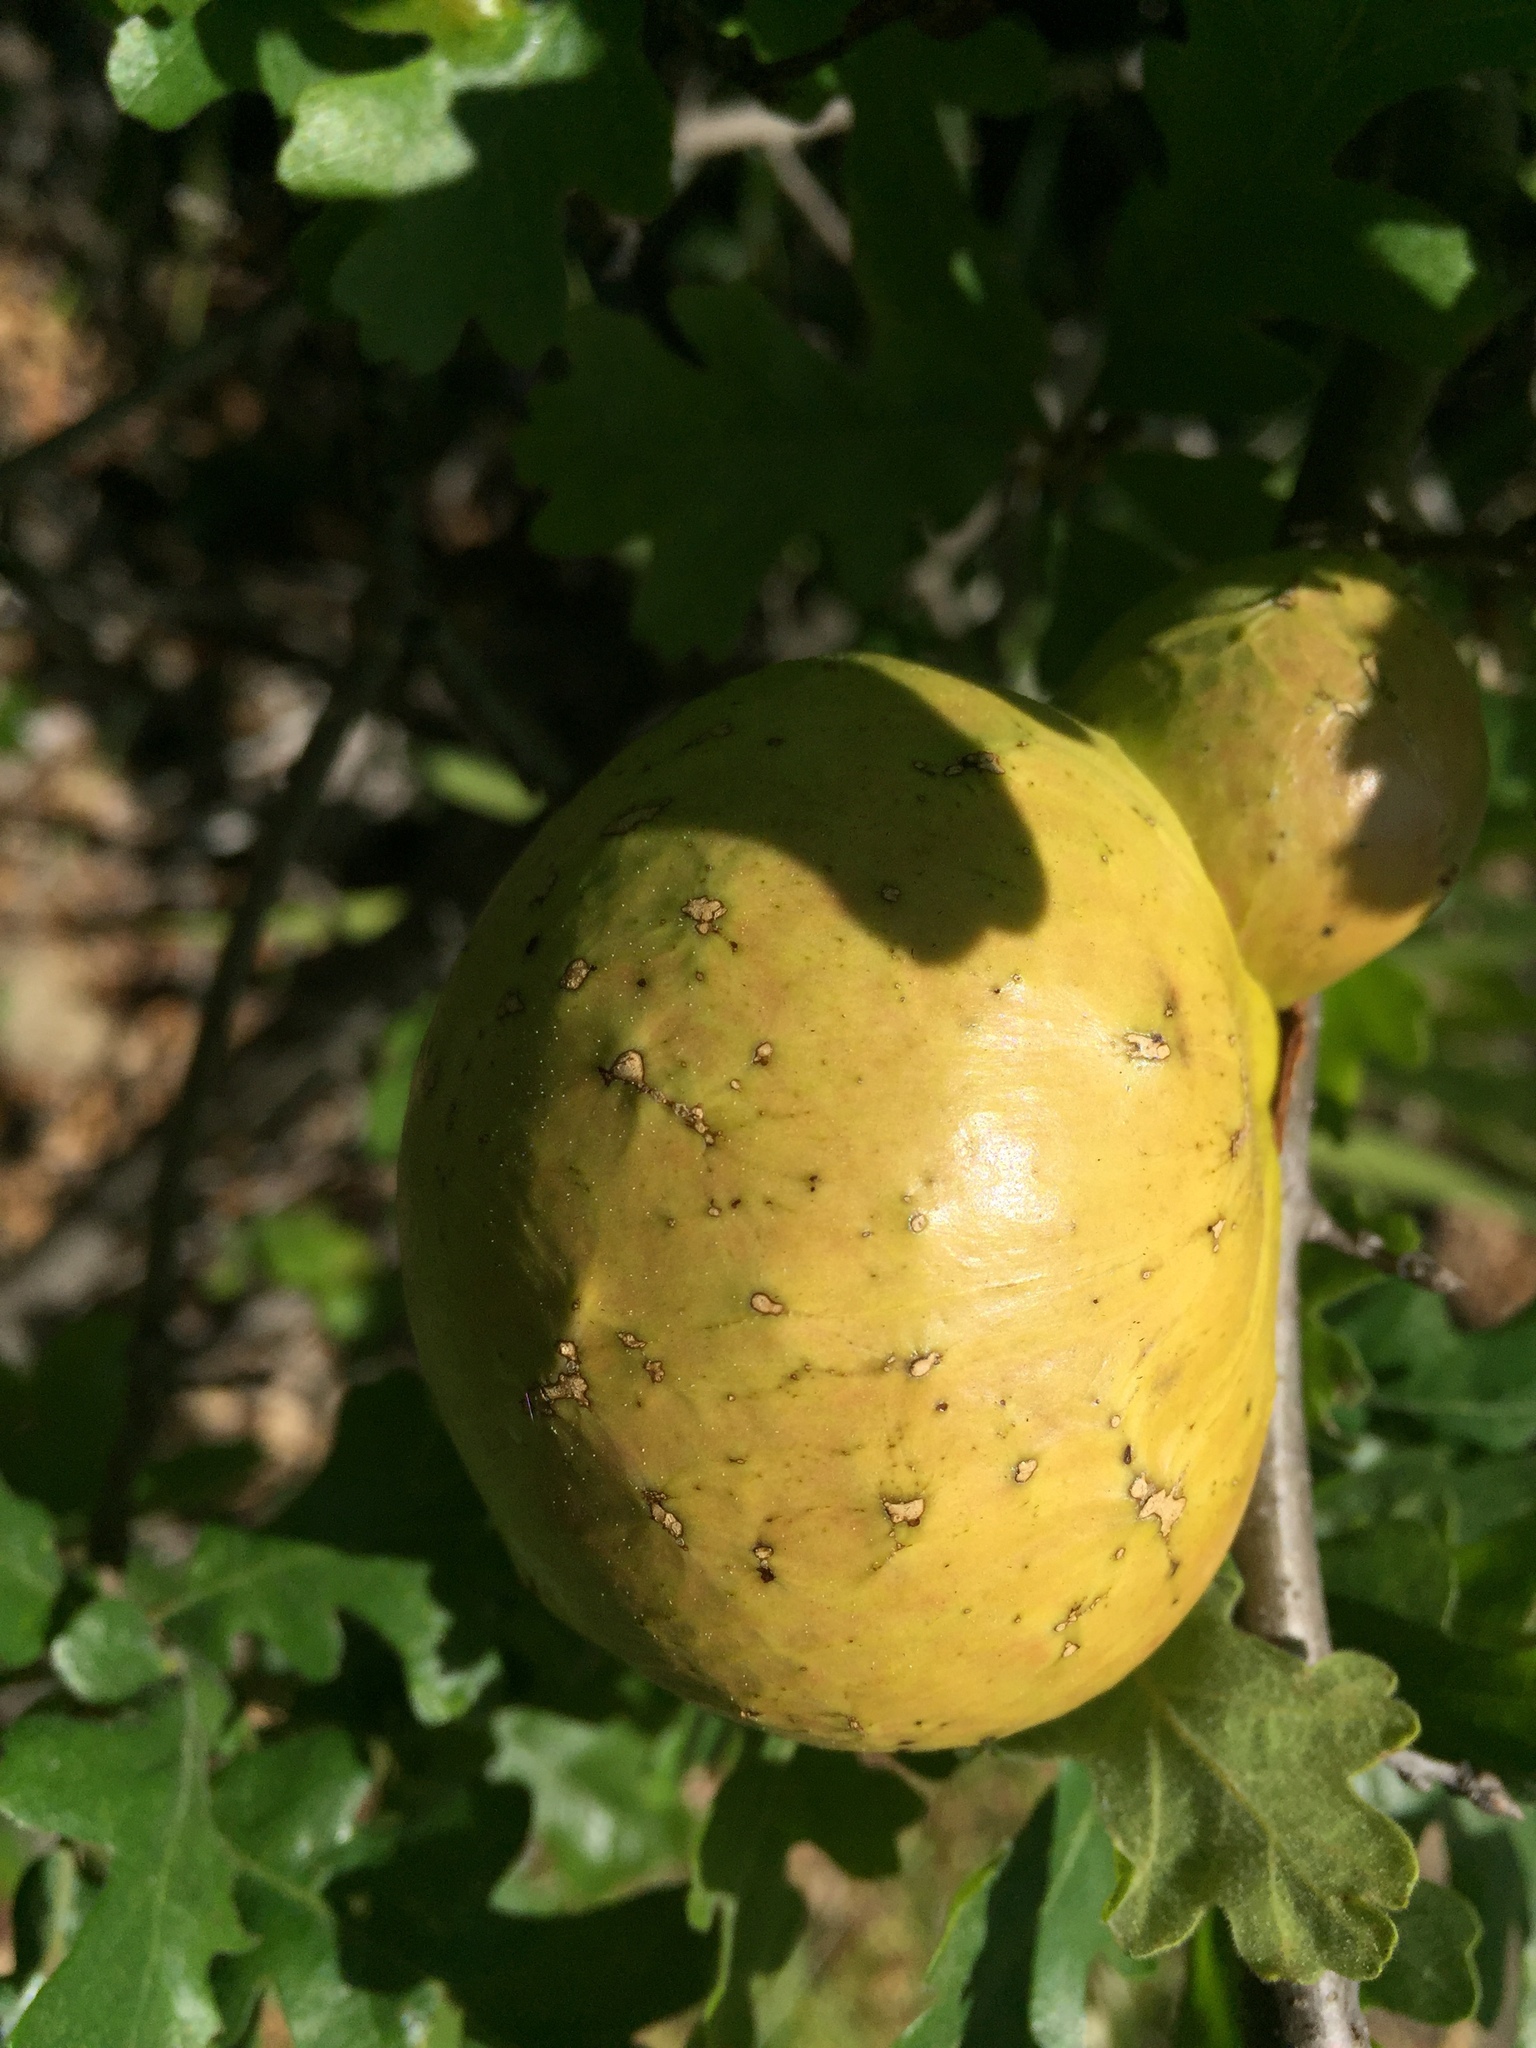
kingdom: Animalia
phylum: Arthropoda
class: Insecta
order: Hymenoptera
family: Cynipidae
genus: Andricus
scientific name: Andricus quercuscalifornicus
